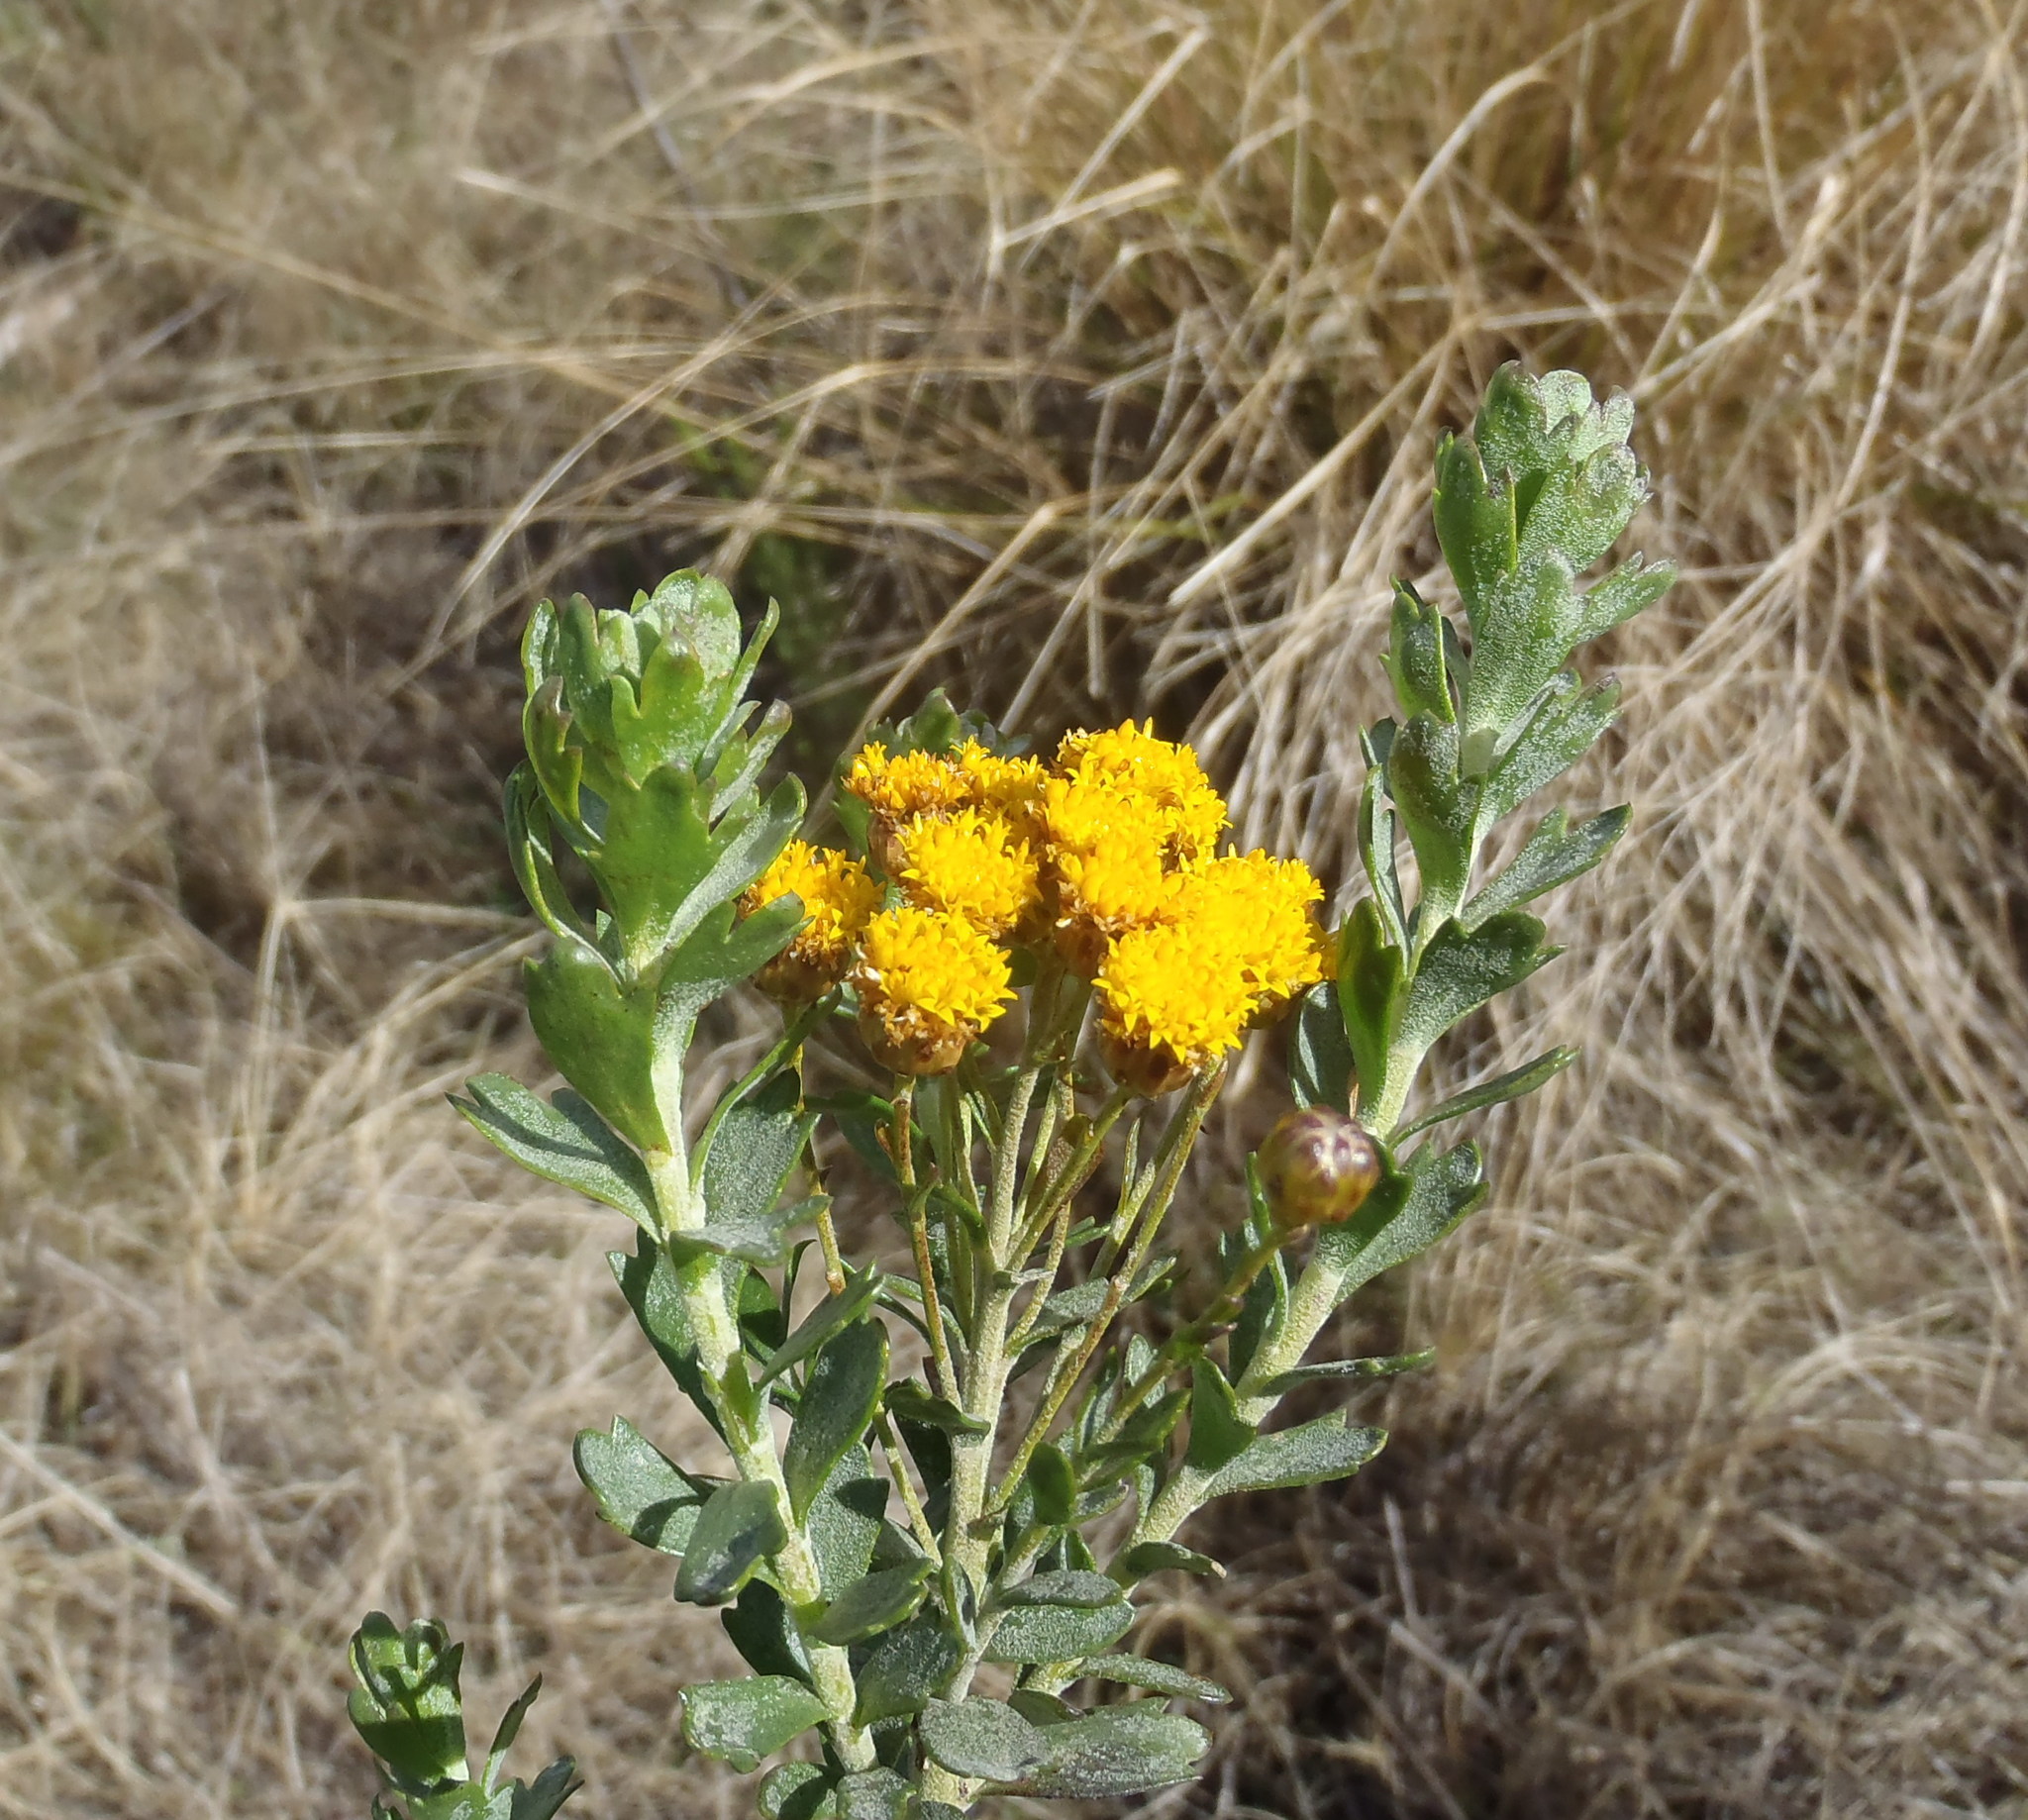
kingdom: Plantae
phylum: Tracheophyta
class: Magnoliopsida
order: Asterales
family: Asteraceae
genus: Athanasia
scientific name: Athanasia trifurcata
